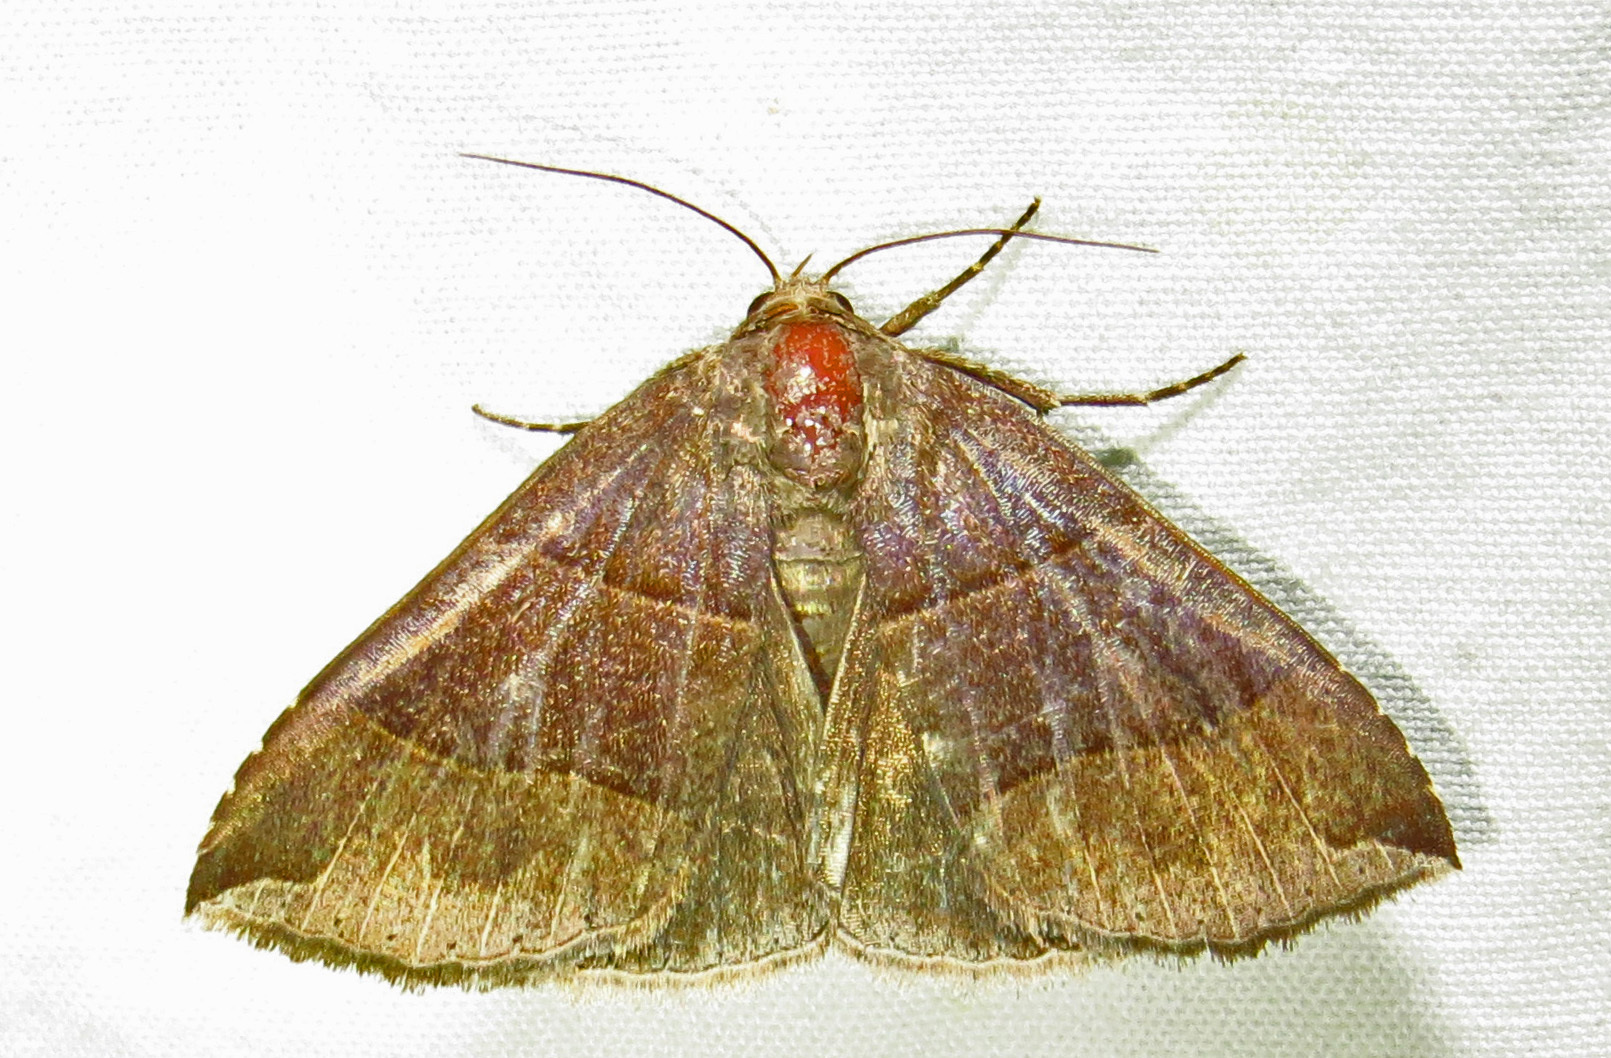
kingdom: Animalia
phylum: Arthropoda
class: Insecta
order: Lepidoptera
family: Erebidae
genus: Parallelia
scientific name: Parallelia bistriaris
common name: Maple looper moth
